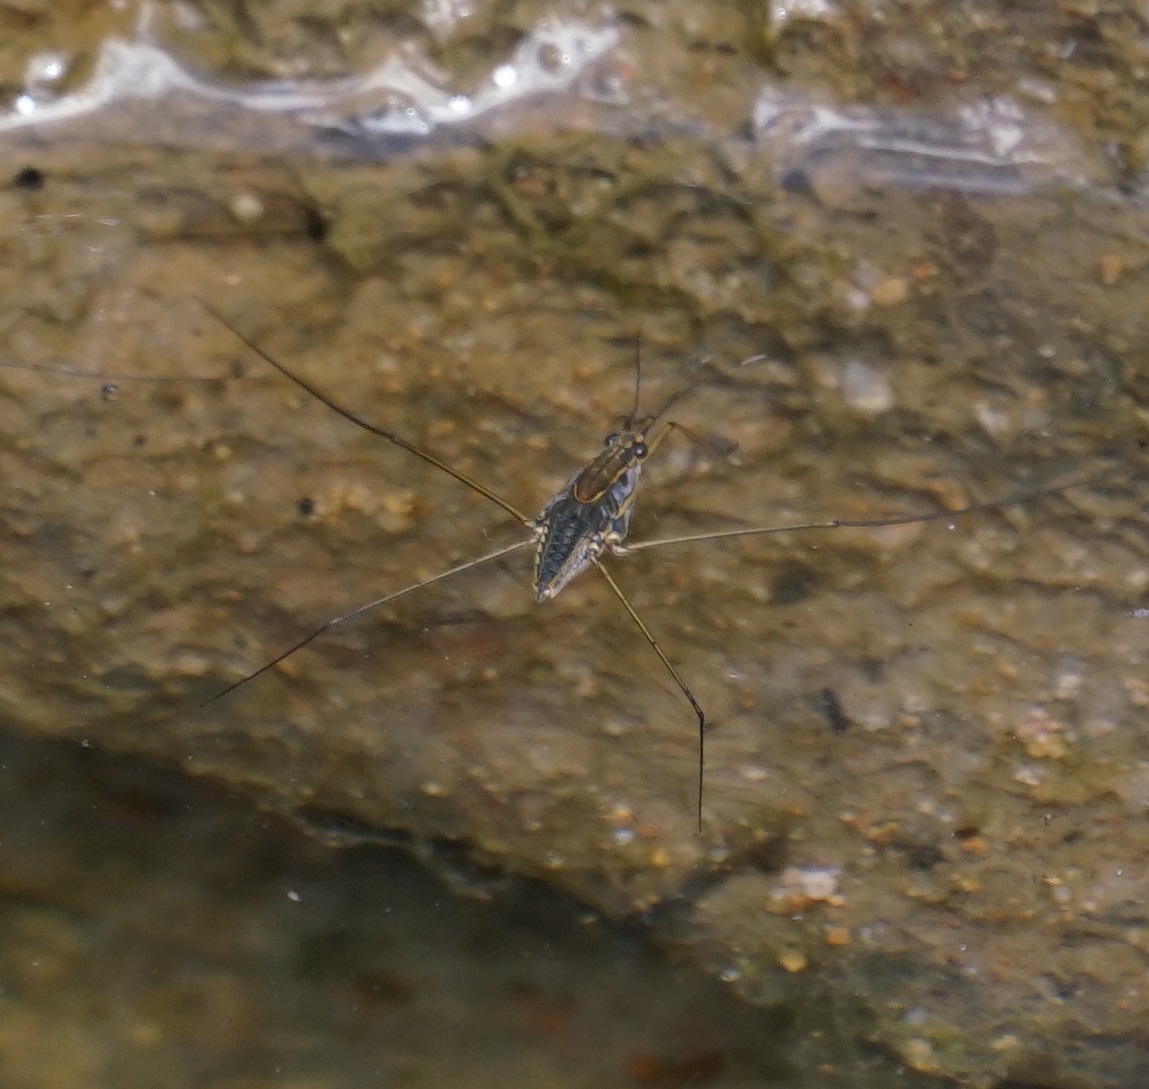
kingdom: Animalia
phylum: Arthropoda
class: Insecta
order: Hemiptera
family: Gerridae
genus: Tenagogerris
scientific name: Tenagogerris euphrosyne
